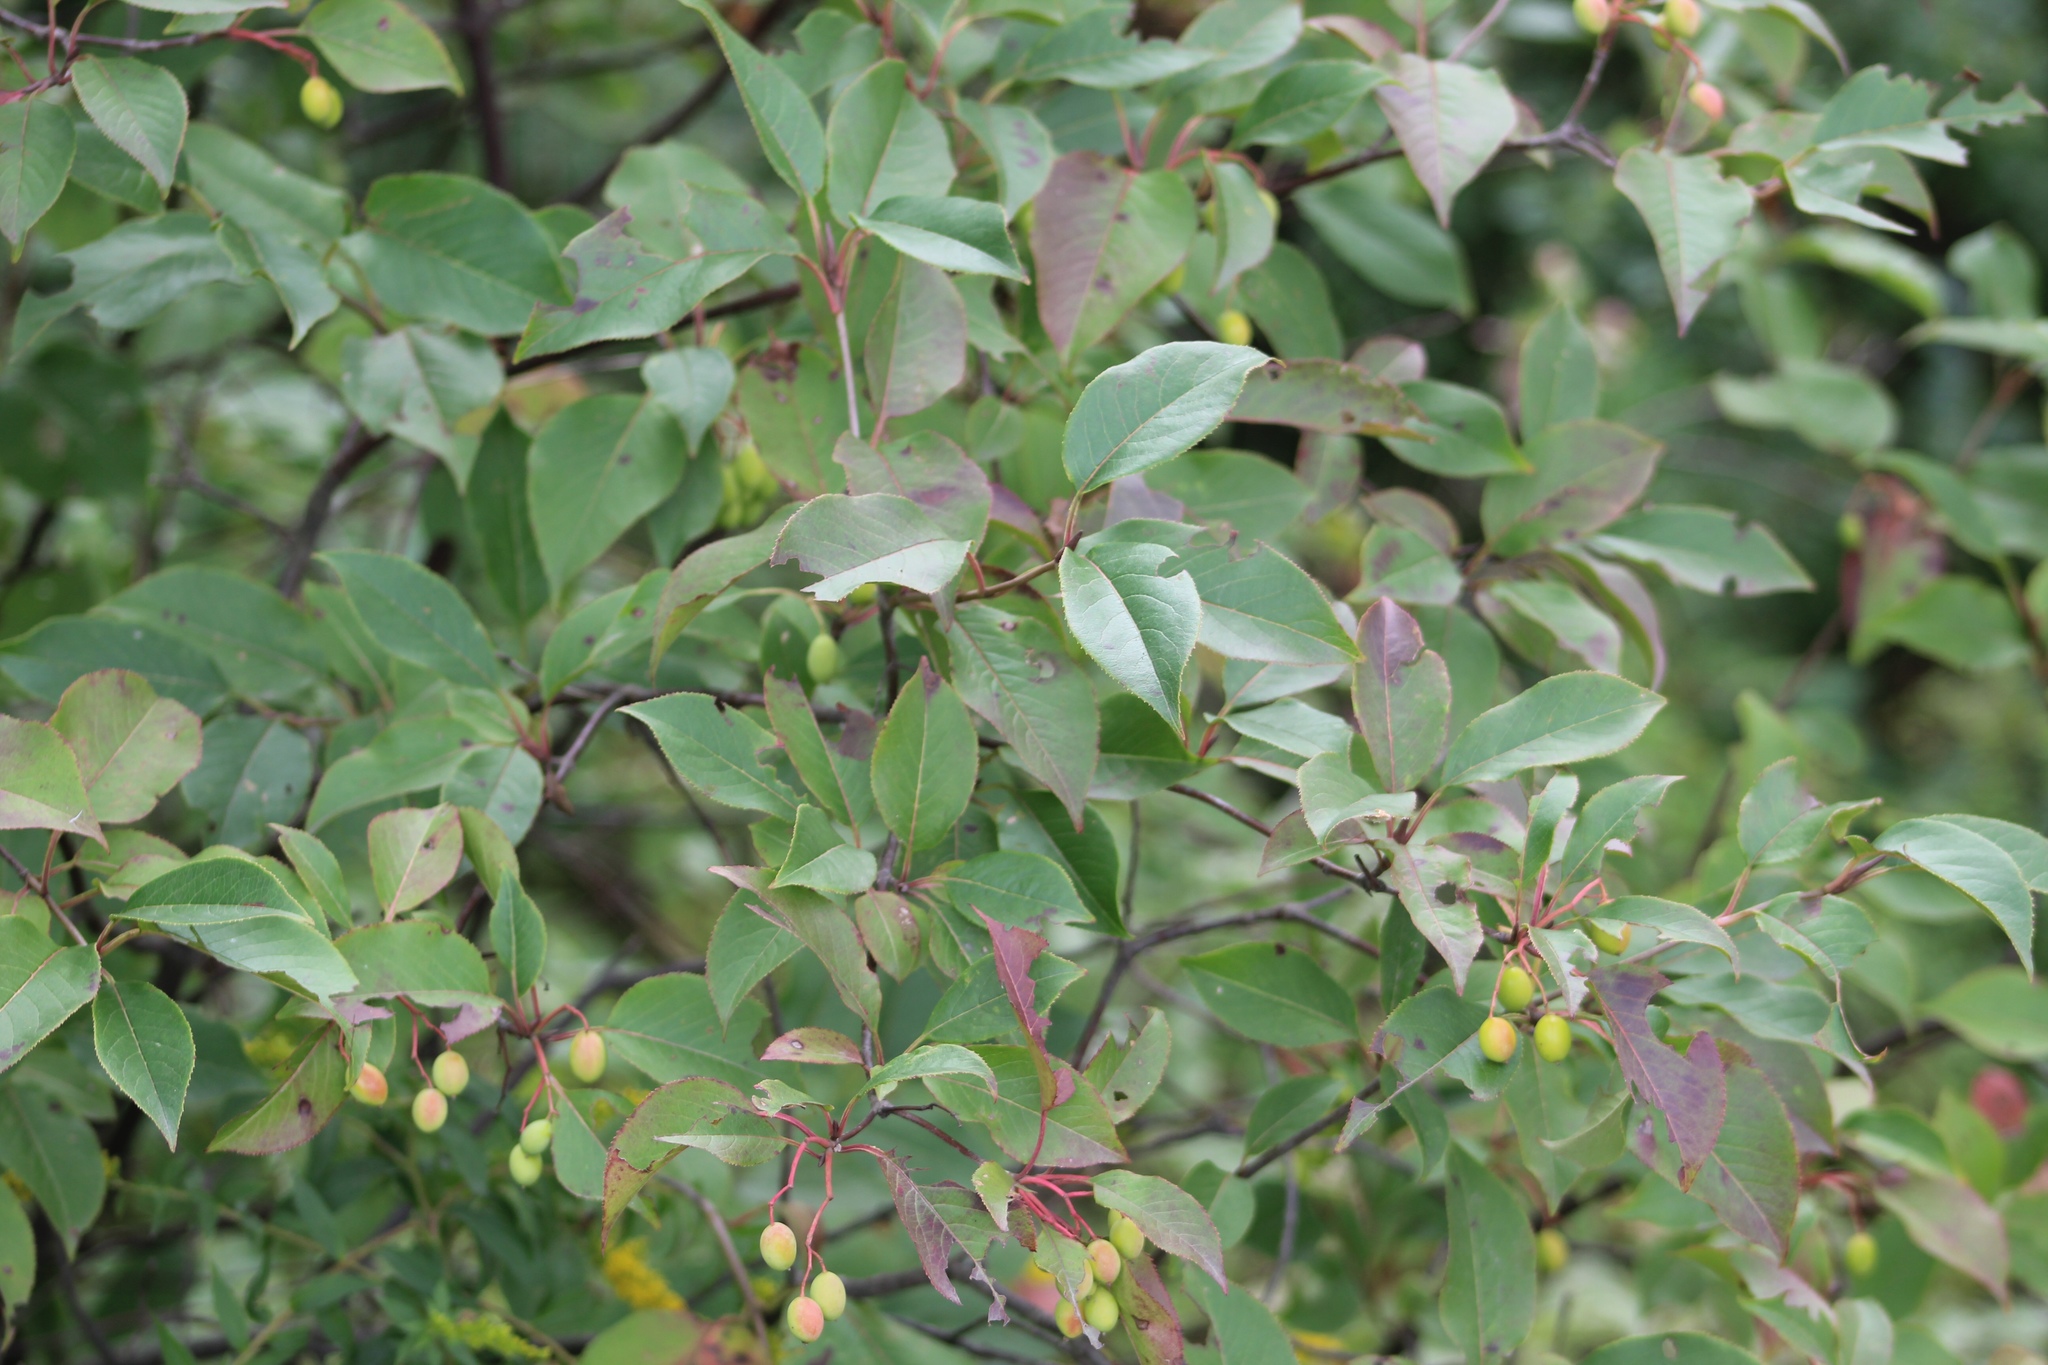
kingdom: Plantae
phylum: Tracheophyta
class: Magnoliopsida
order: Dipsacales
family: Viburnaceae
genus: Viburnum
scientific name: Viburnum lentago
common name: Black haw
